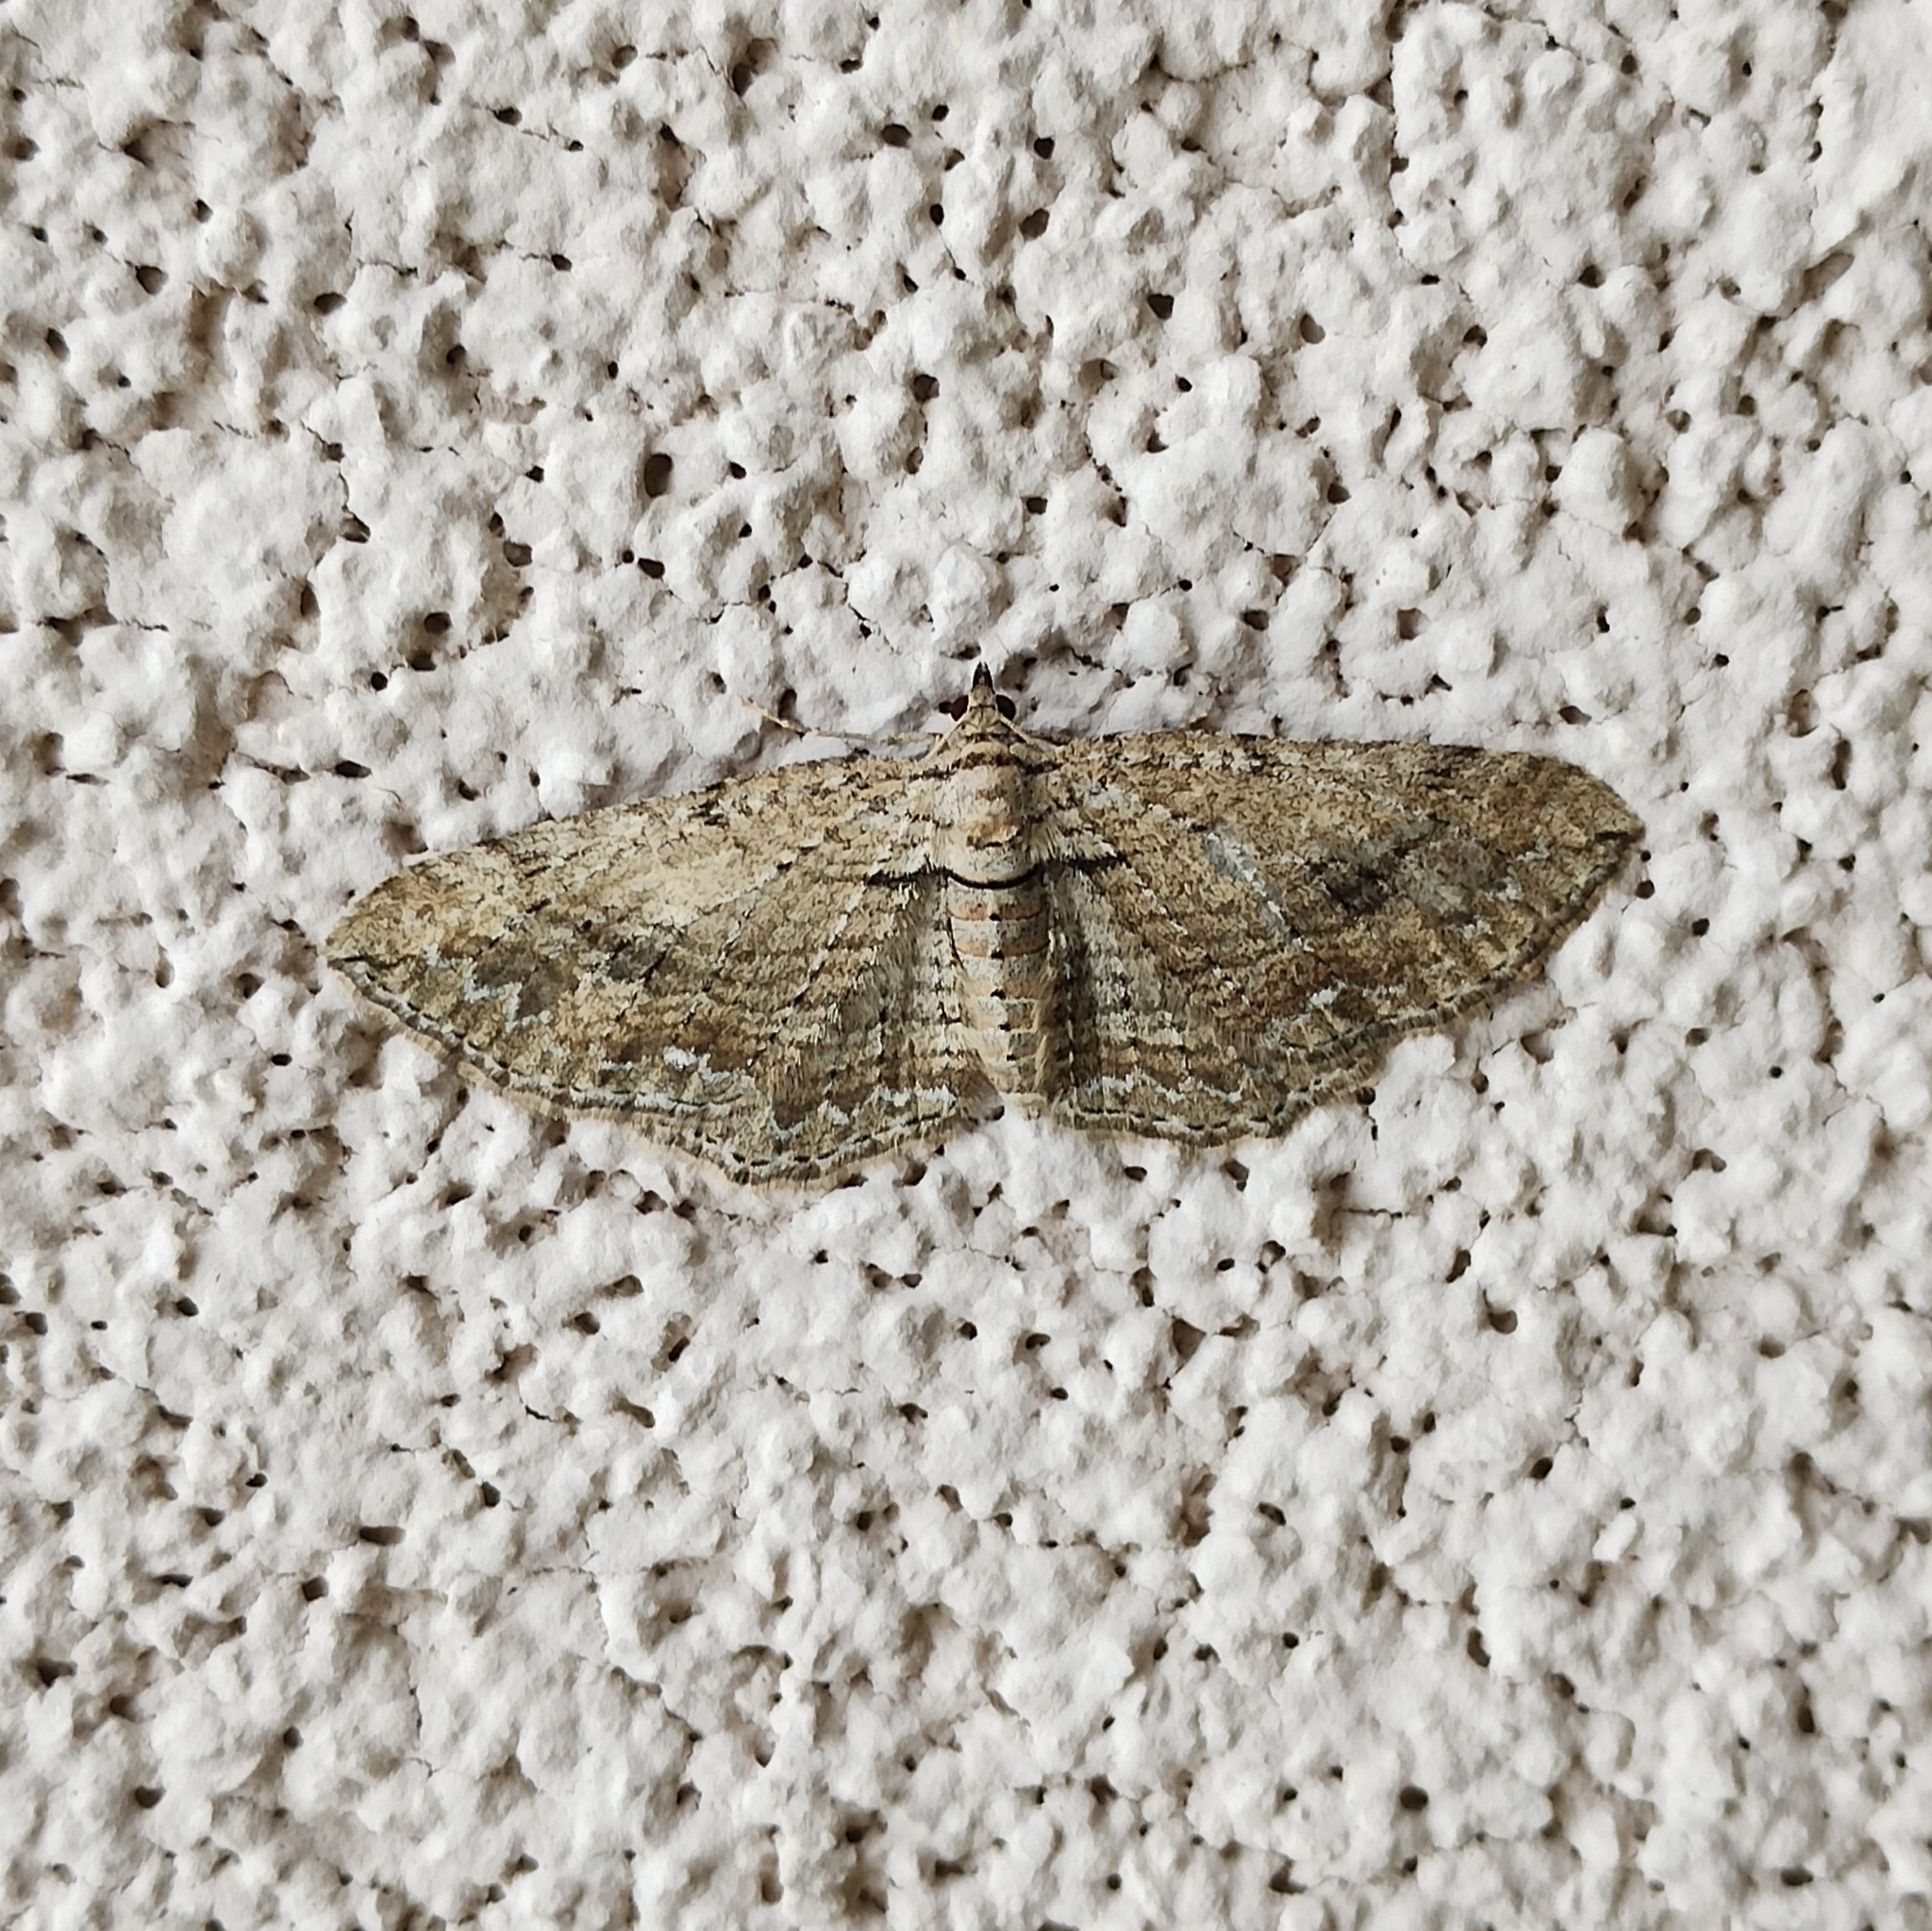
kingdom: Animalia
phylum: Arthropoda
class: Insecta
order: Lepidoptera
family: Geometridae
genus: Horisme
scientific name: Horisme
